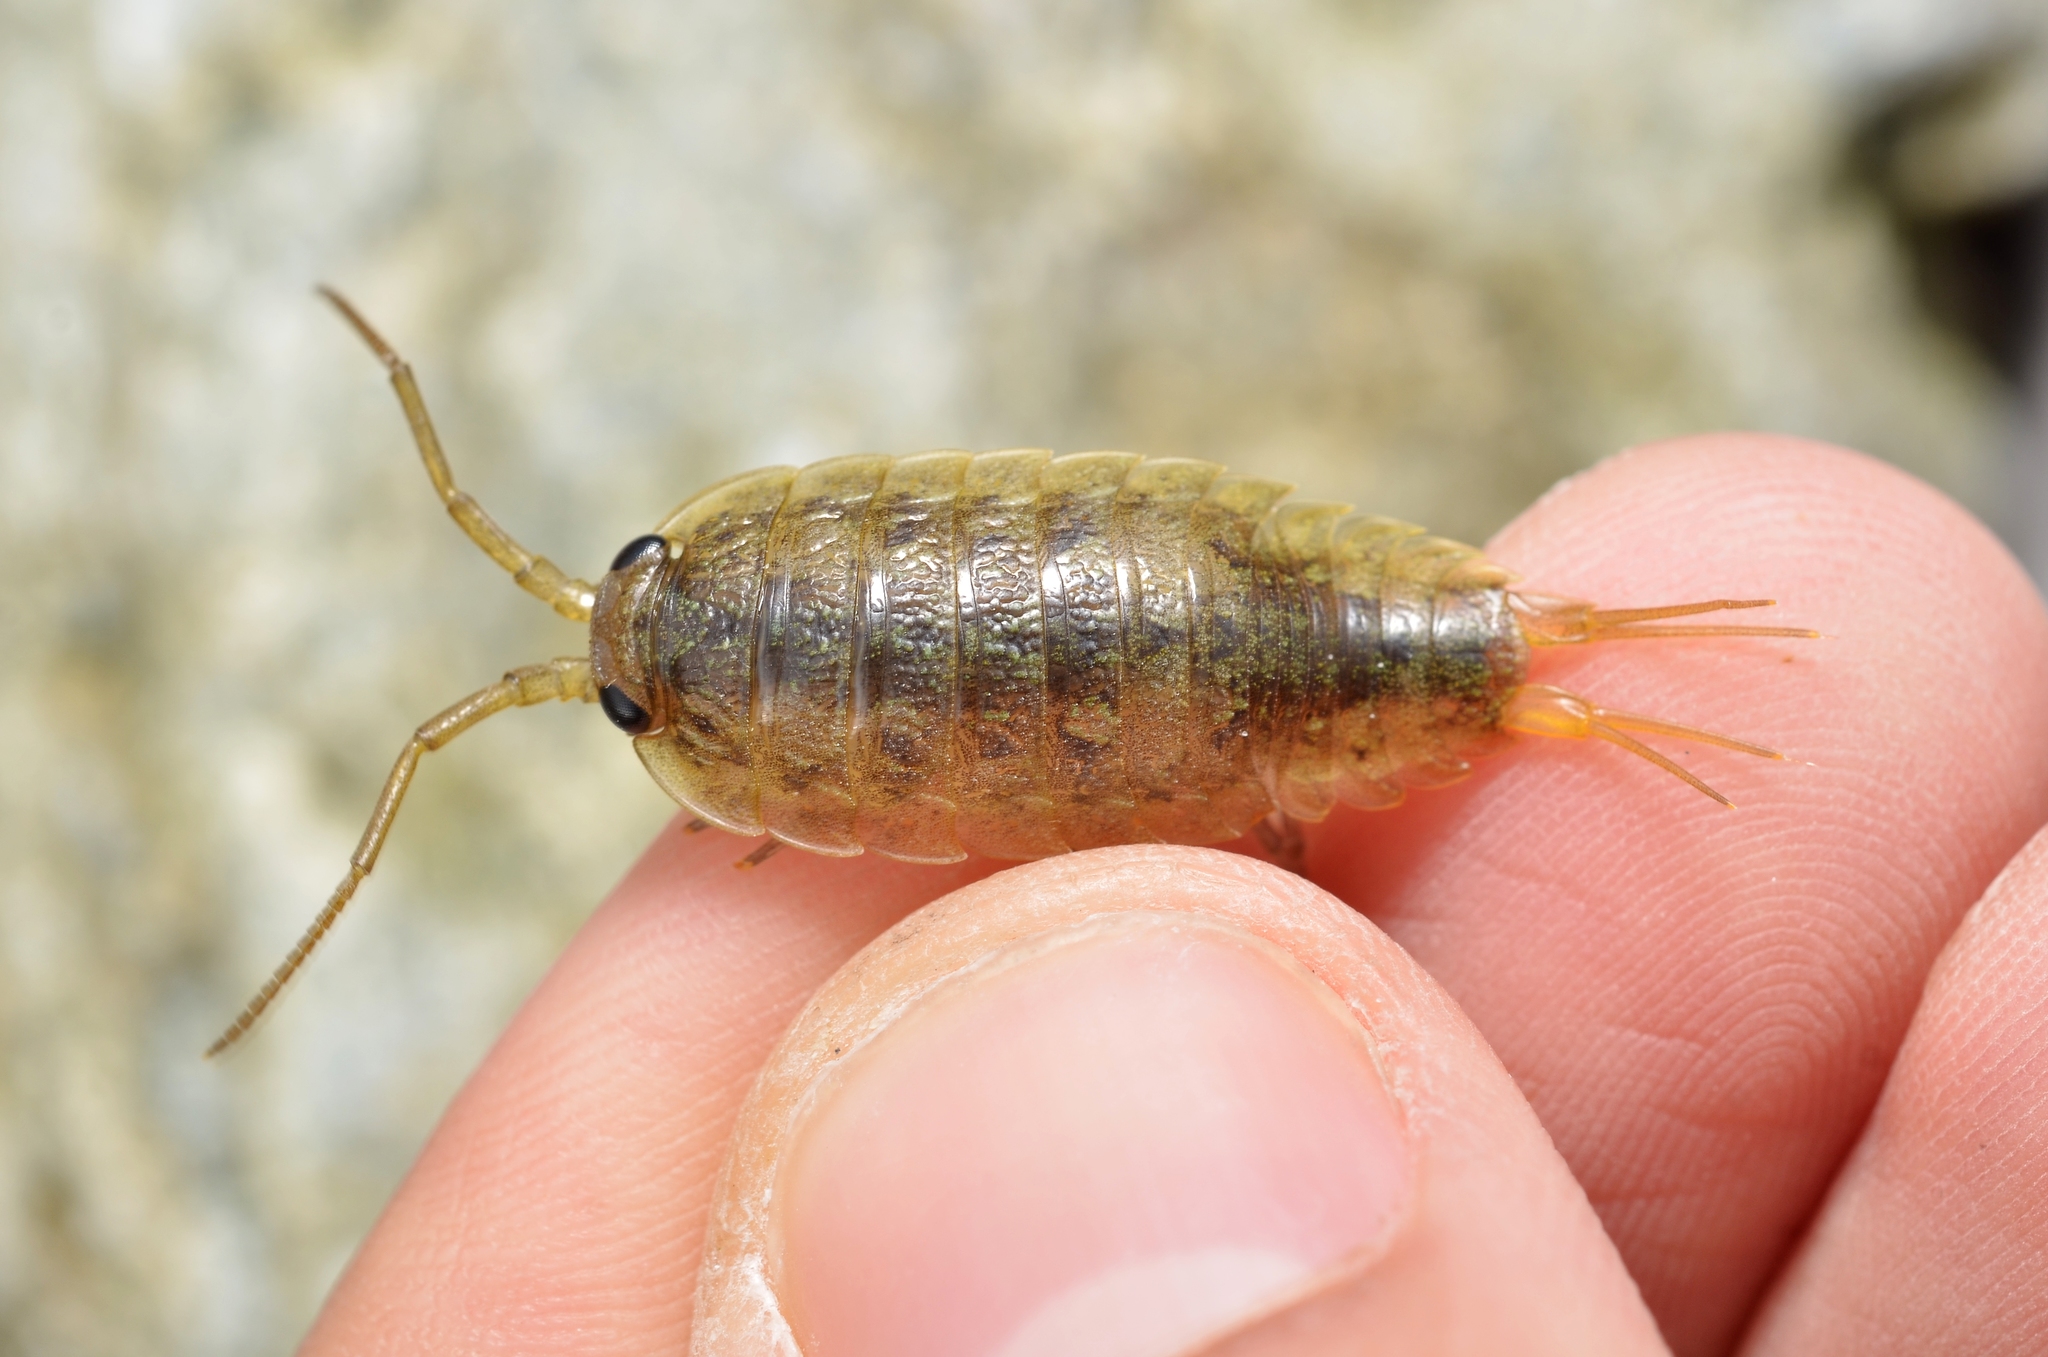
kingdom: Animalia
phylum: Arthropoda
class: Malacostraca
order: Isopoda
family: Ligiidae
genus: Ligia
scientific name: Ligia oceanica
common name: Sea slater
